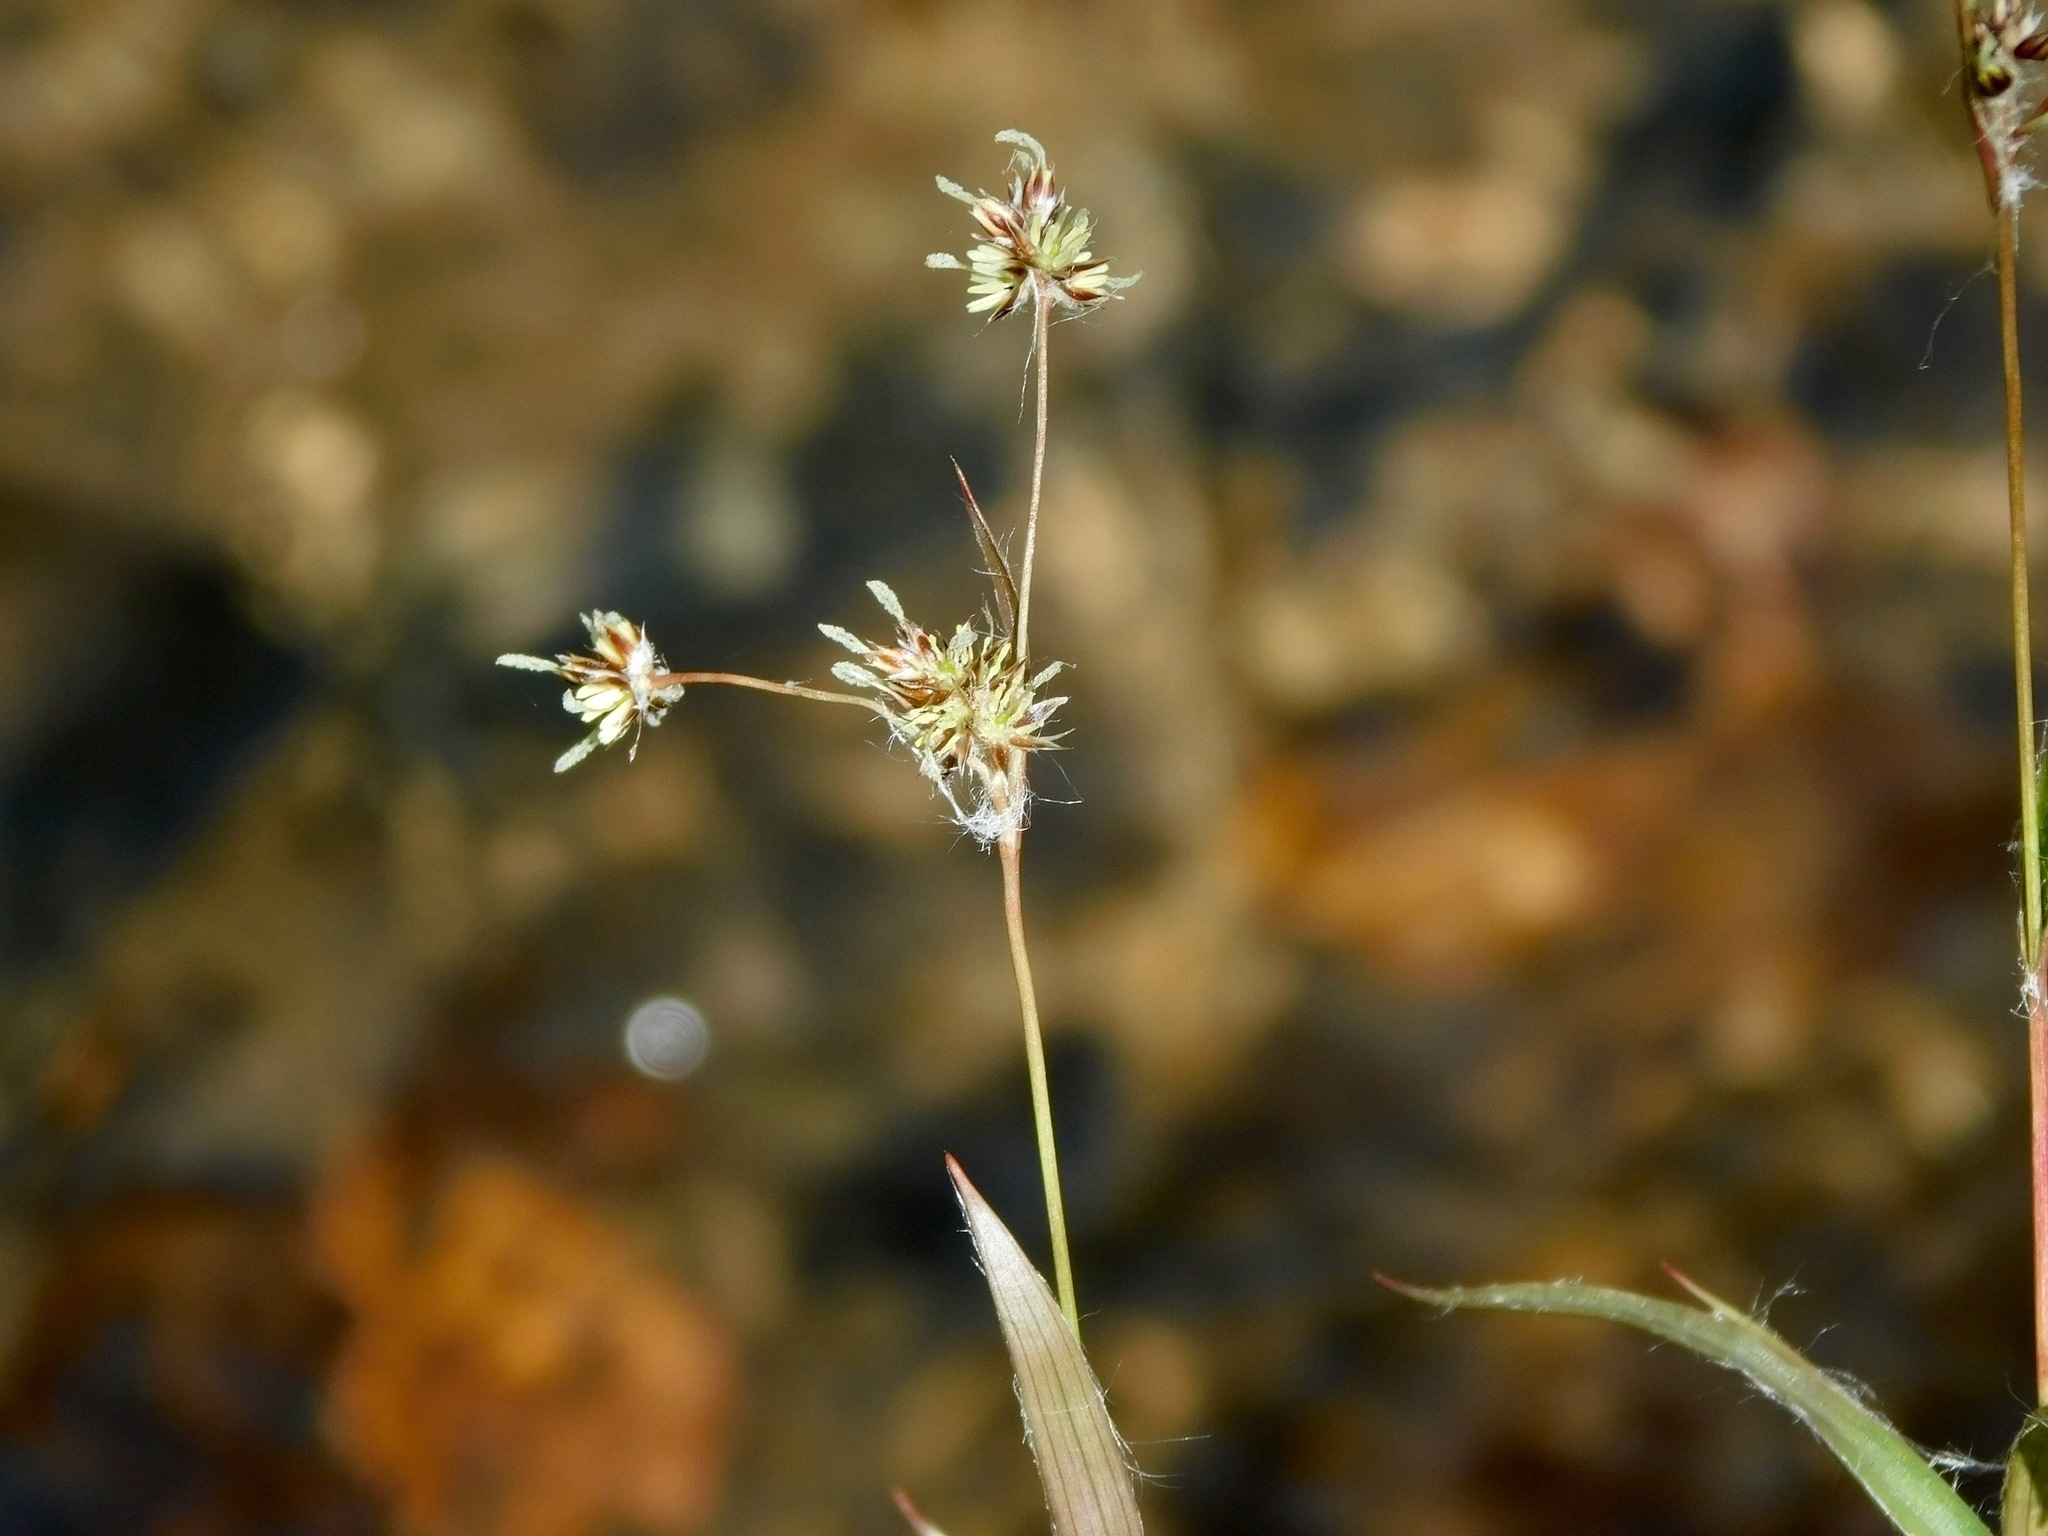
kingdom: Plantae
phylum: Tracheophyta
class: Liliopsida
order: Poales
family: Juncaceae
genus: Luzula
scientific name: Luzula echinata
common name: Hedgehog woodrush
